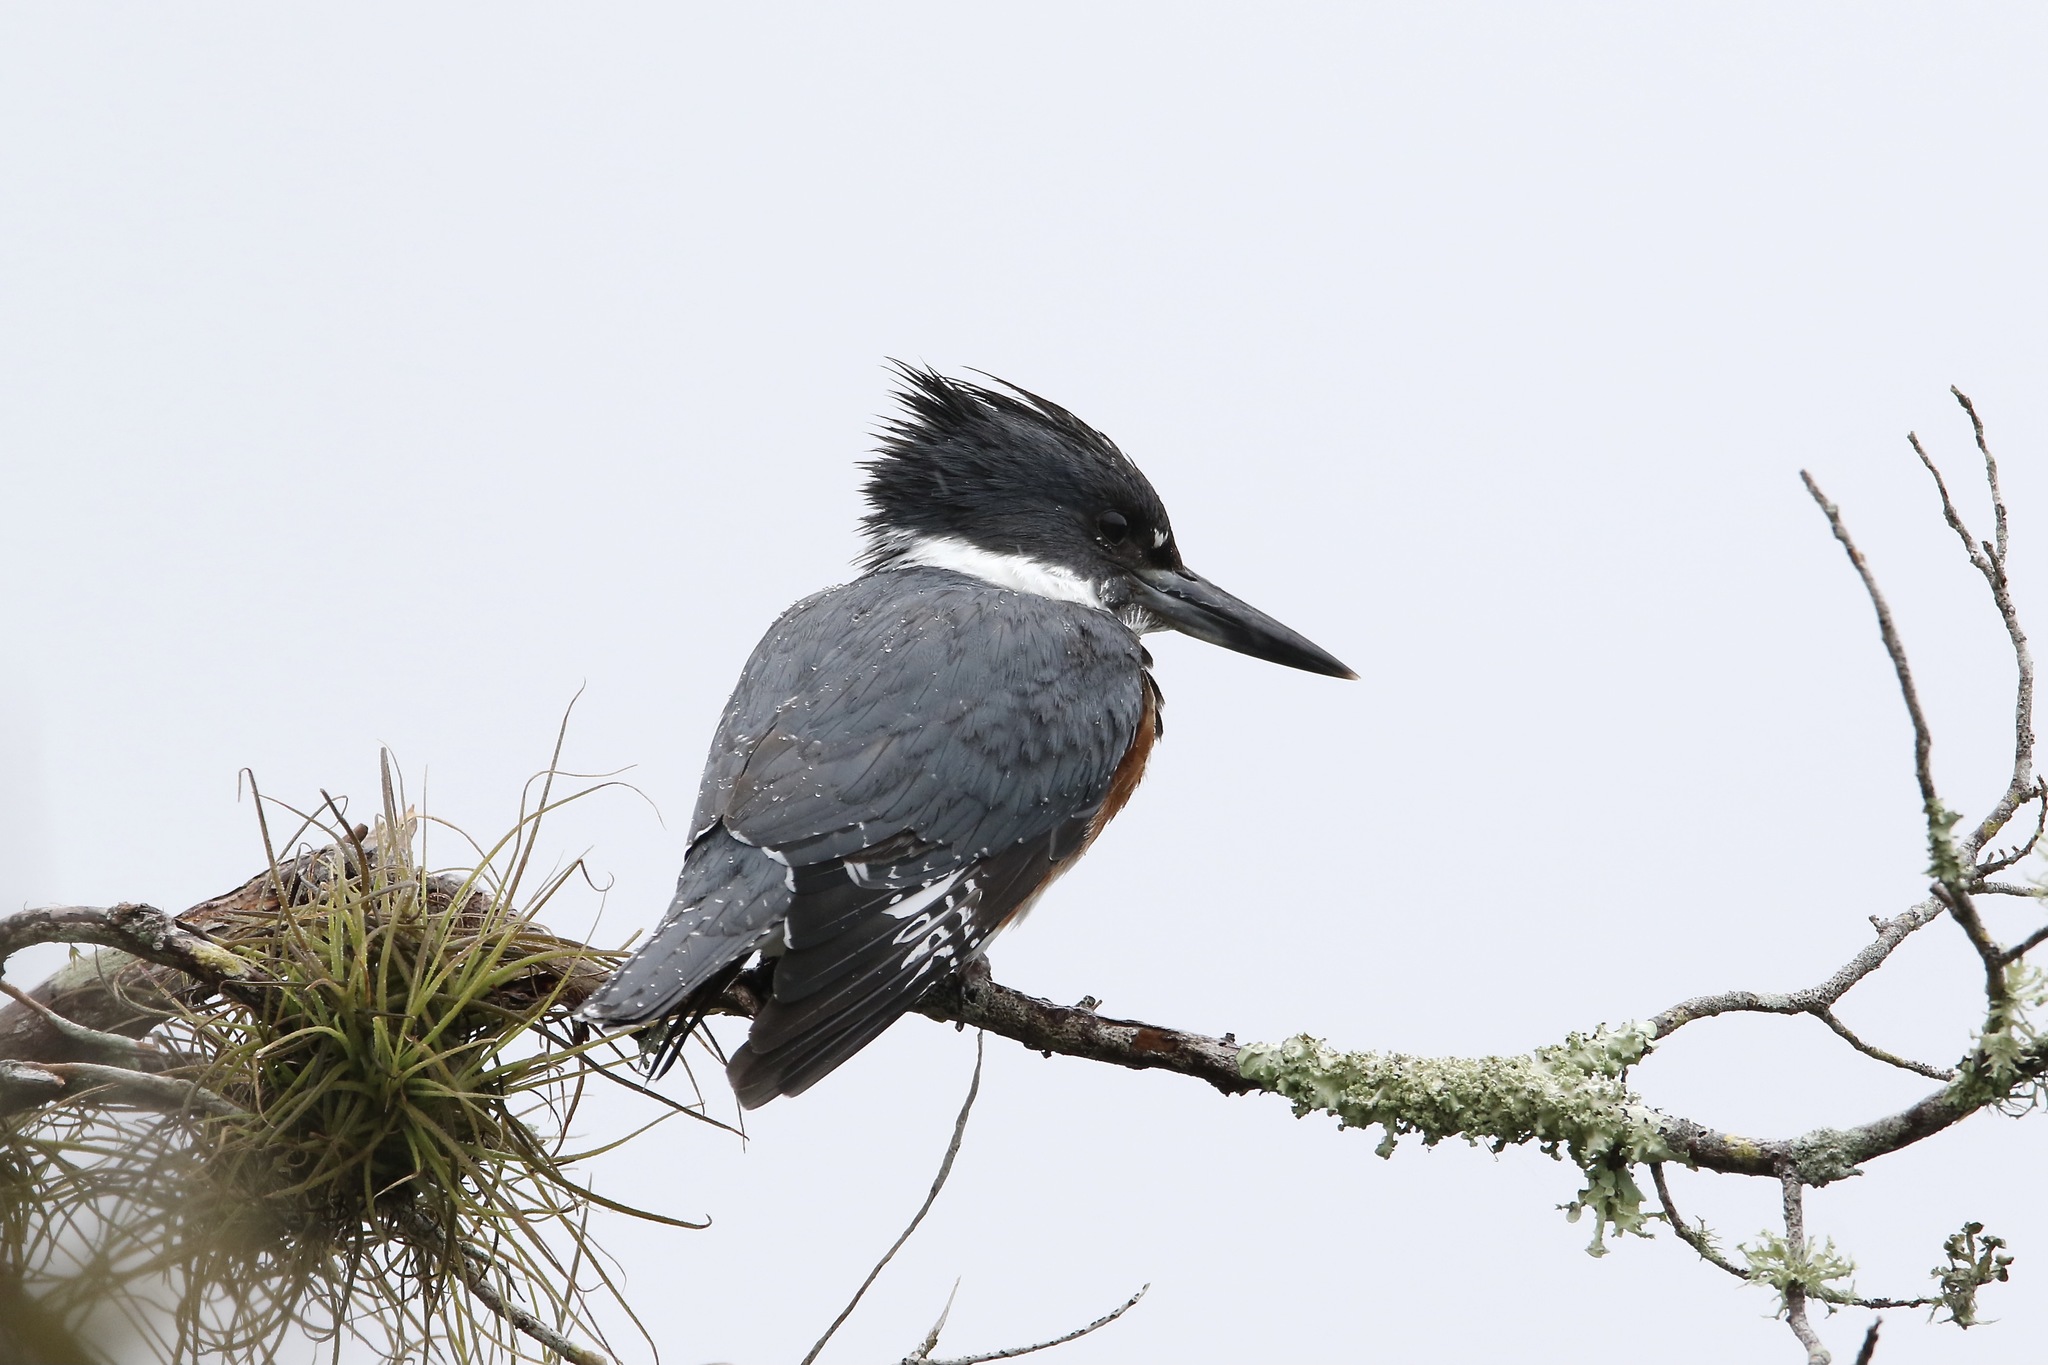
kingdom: Animalia
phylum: Chordata
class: Aves
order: Coraciiformes
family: Alcedinidae
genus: Megaceryle
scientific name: Megaceryle alcyon
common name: Belted kingfisher
